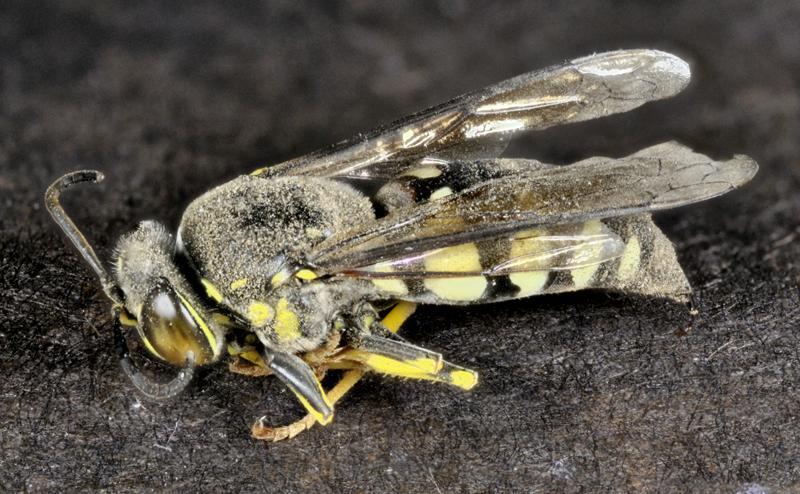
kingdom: Animalia
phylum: Arthropoda
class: Insecta
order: Hymenoptera
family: Crabronidae
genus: Bicyrtes
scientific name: Bicyrtes quadrifasciatus
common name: Four-banded stink bug hunter wasp
